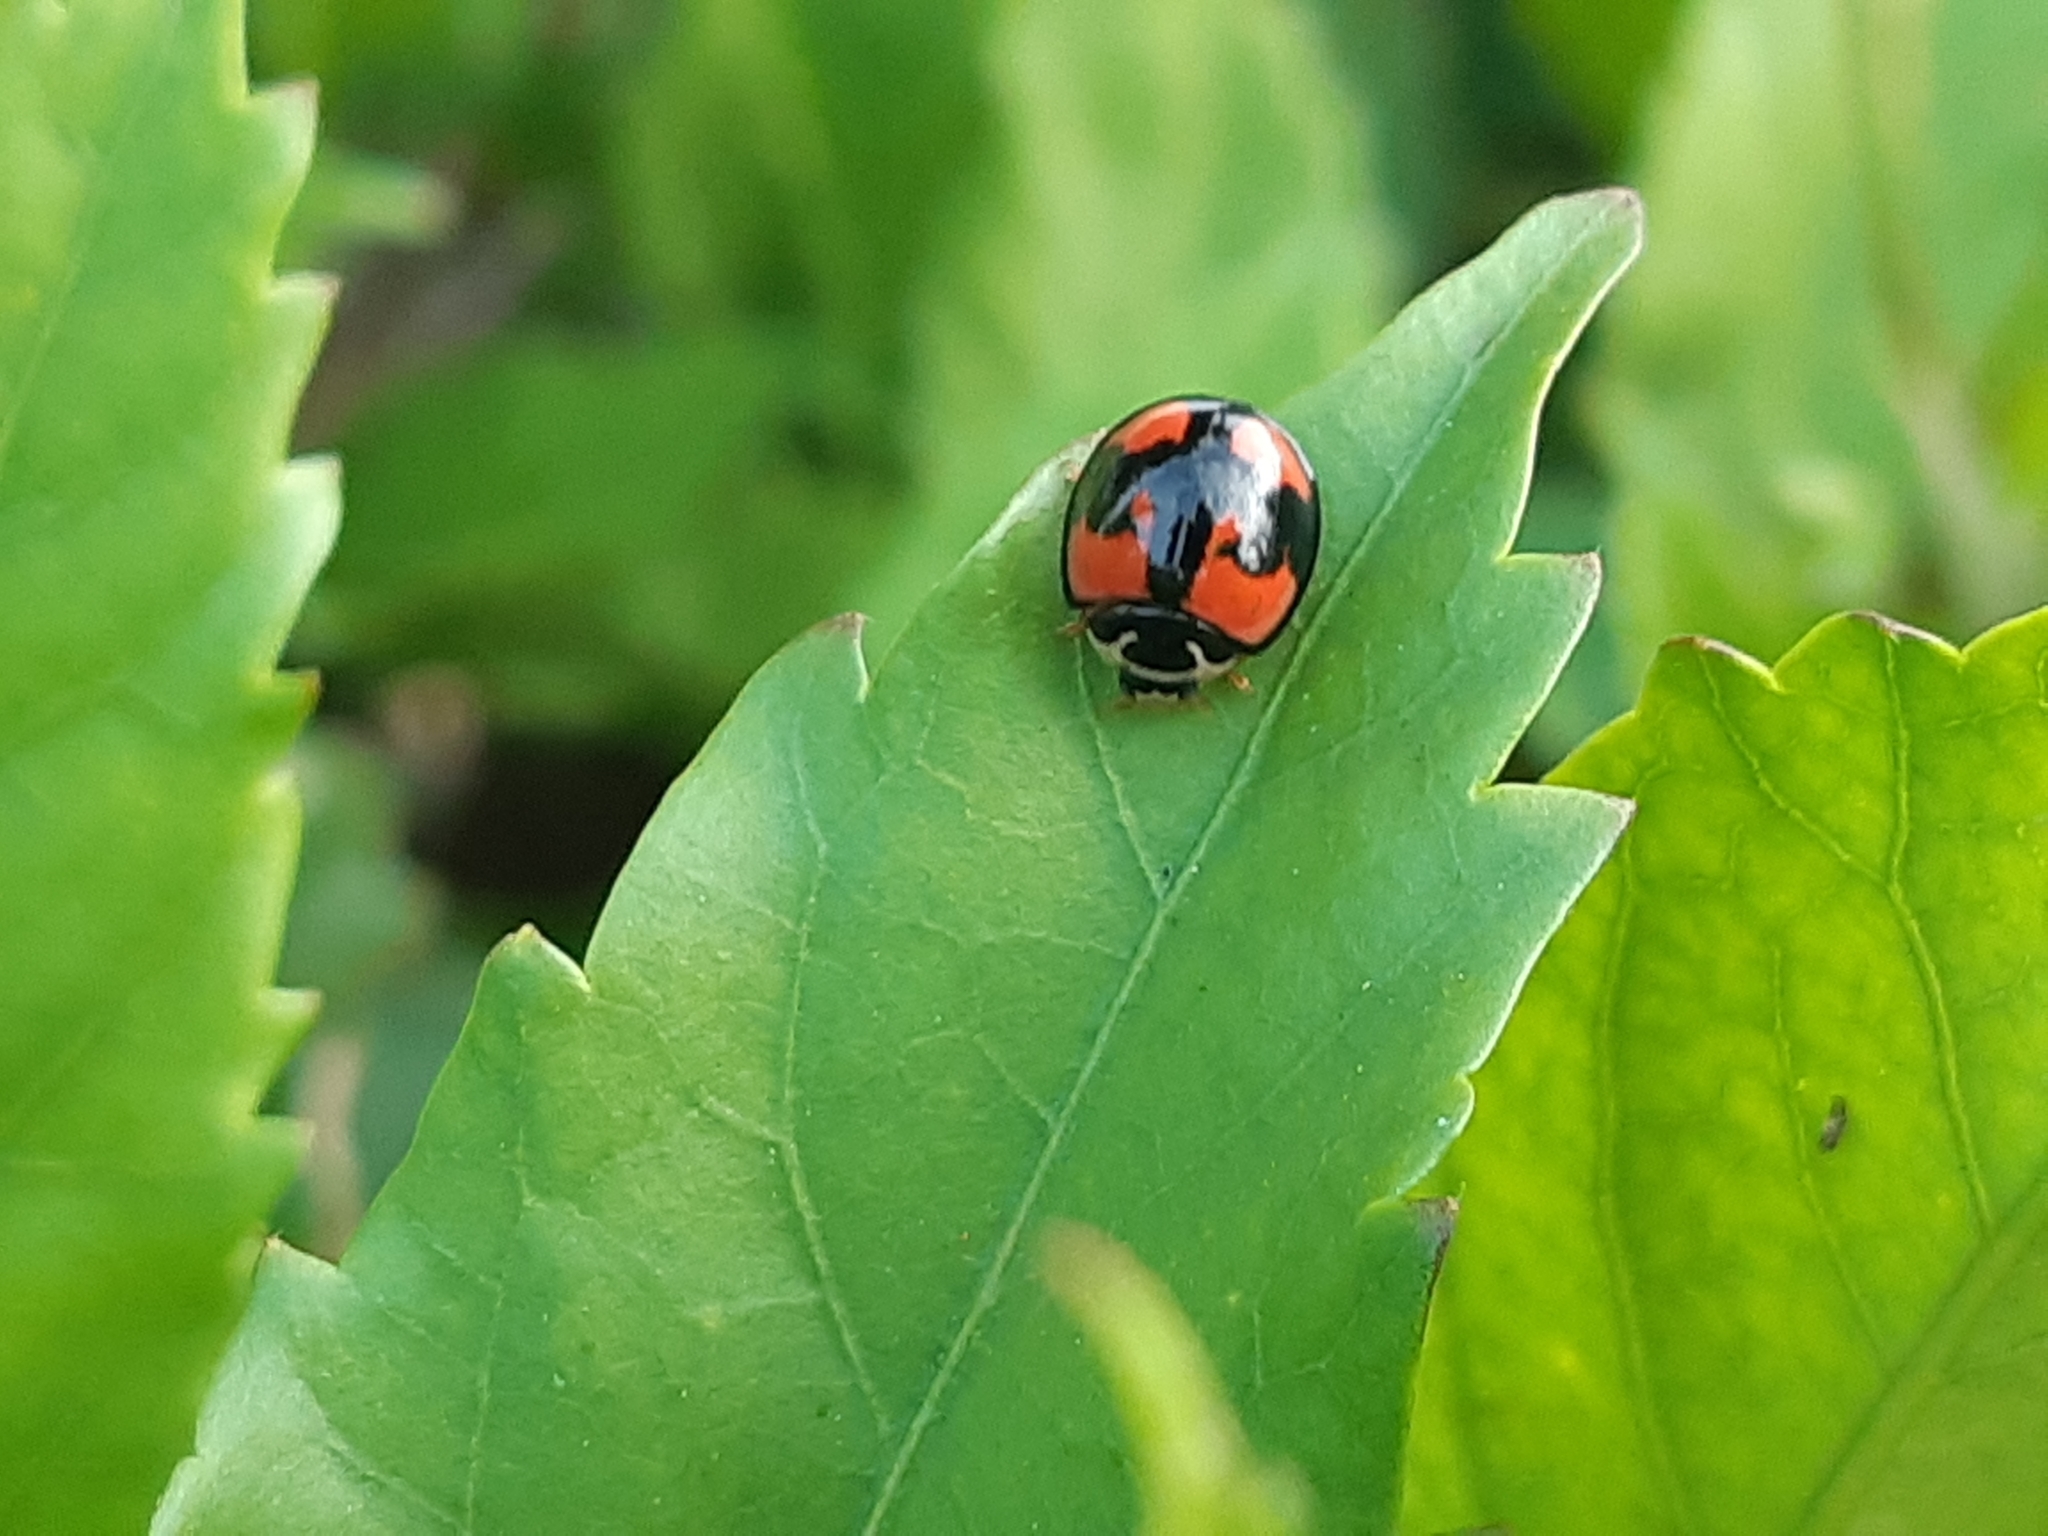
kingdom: Animalia
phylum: Arthropoda
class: Insecta
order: Coleoptera
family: Coccinellidae
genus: Cheilomenes
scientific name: Cheilomenes sexmaculata
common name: Ladybird beetle
